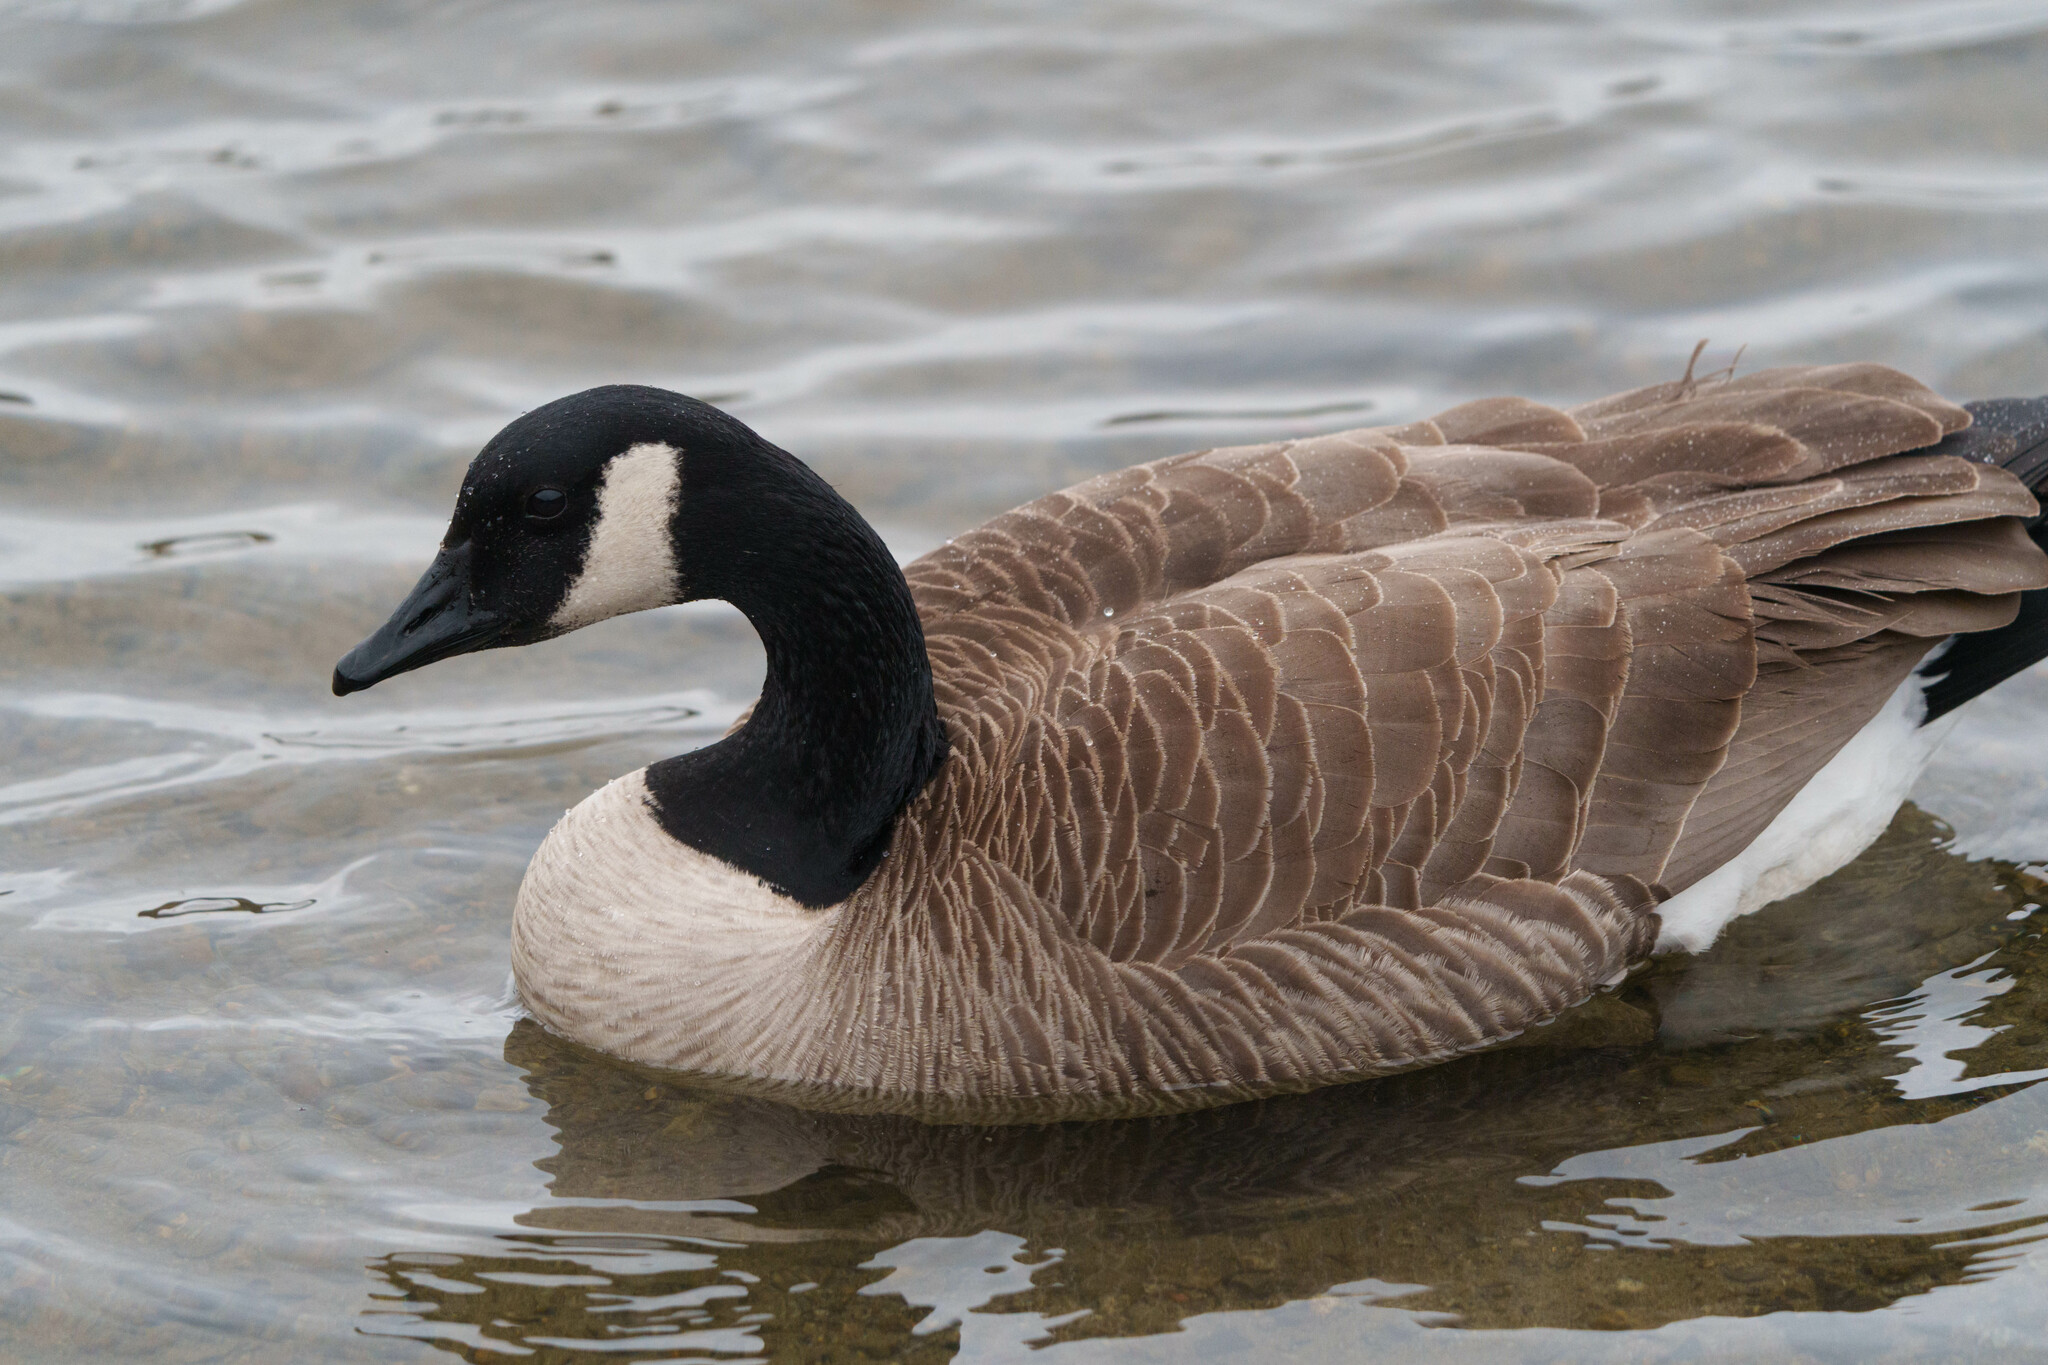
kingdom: Animalia
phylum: Chordata
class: Aves
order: Anseriformes
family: Anatidae
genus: Branta
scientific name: Branta canadensis
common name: Canada goose
